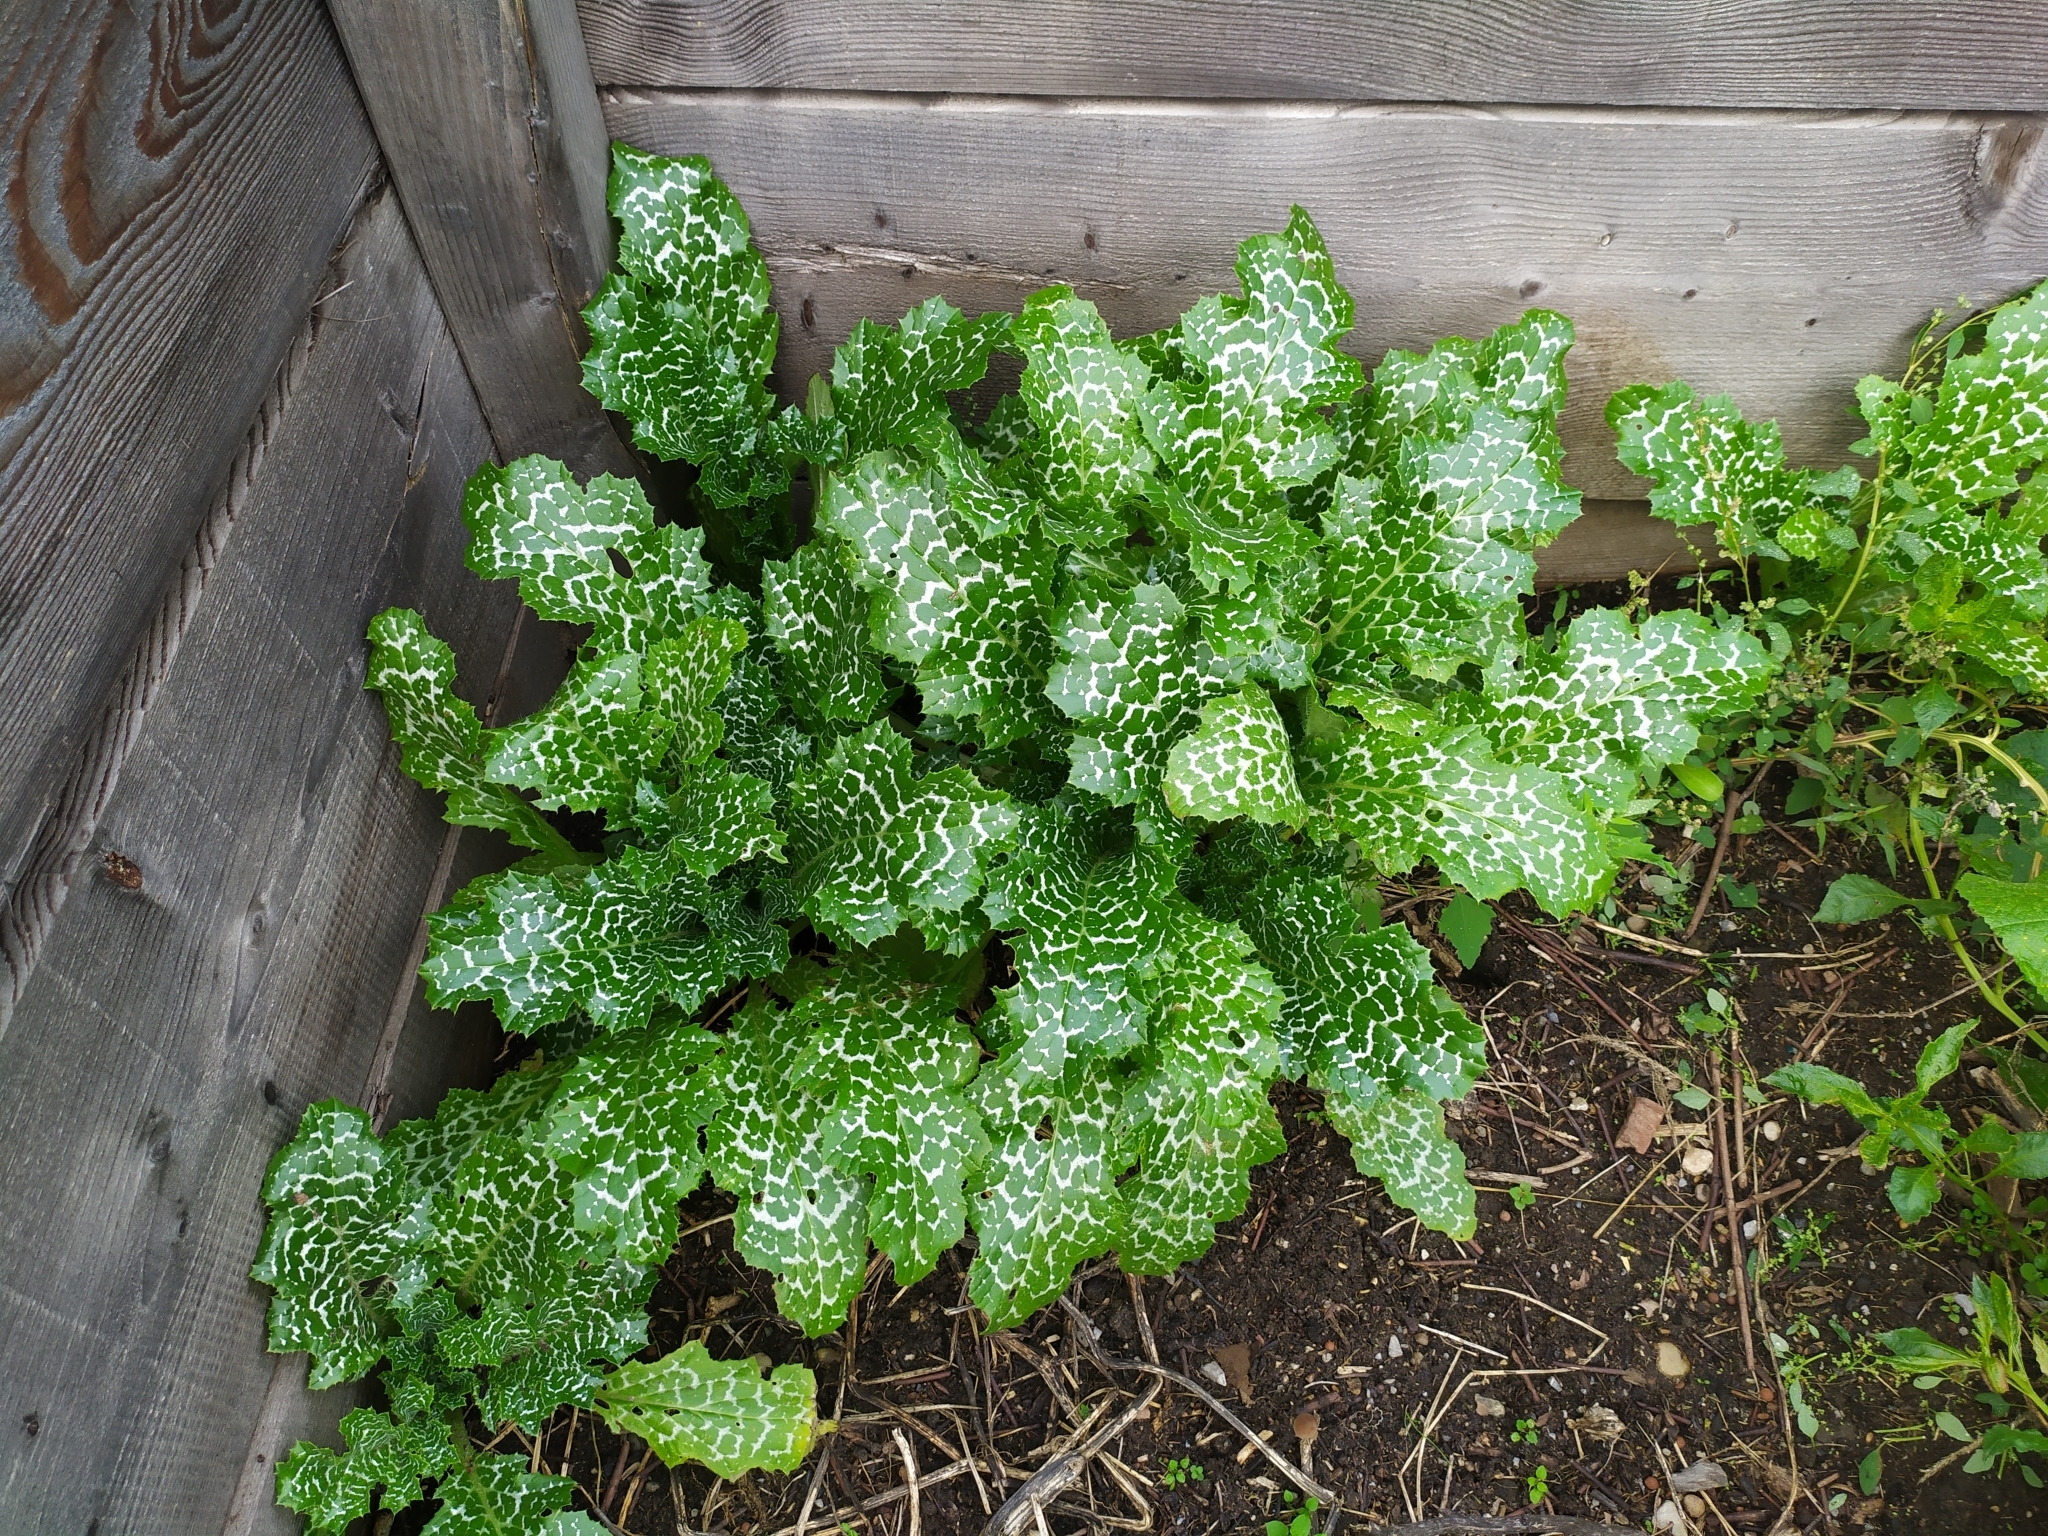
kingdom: Plantae
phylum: Tracheophyta
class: Magnoliopsida
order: Asterales
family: Asteraceae
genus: Silybum
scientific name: Silybum marianum
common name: Milk thistle
